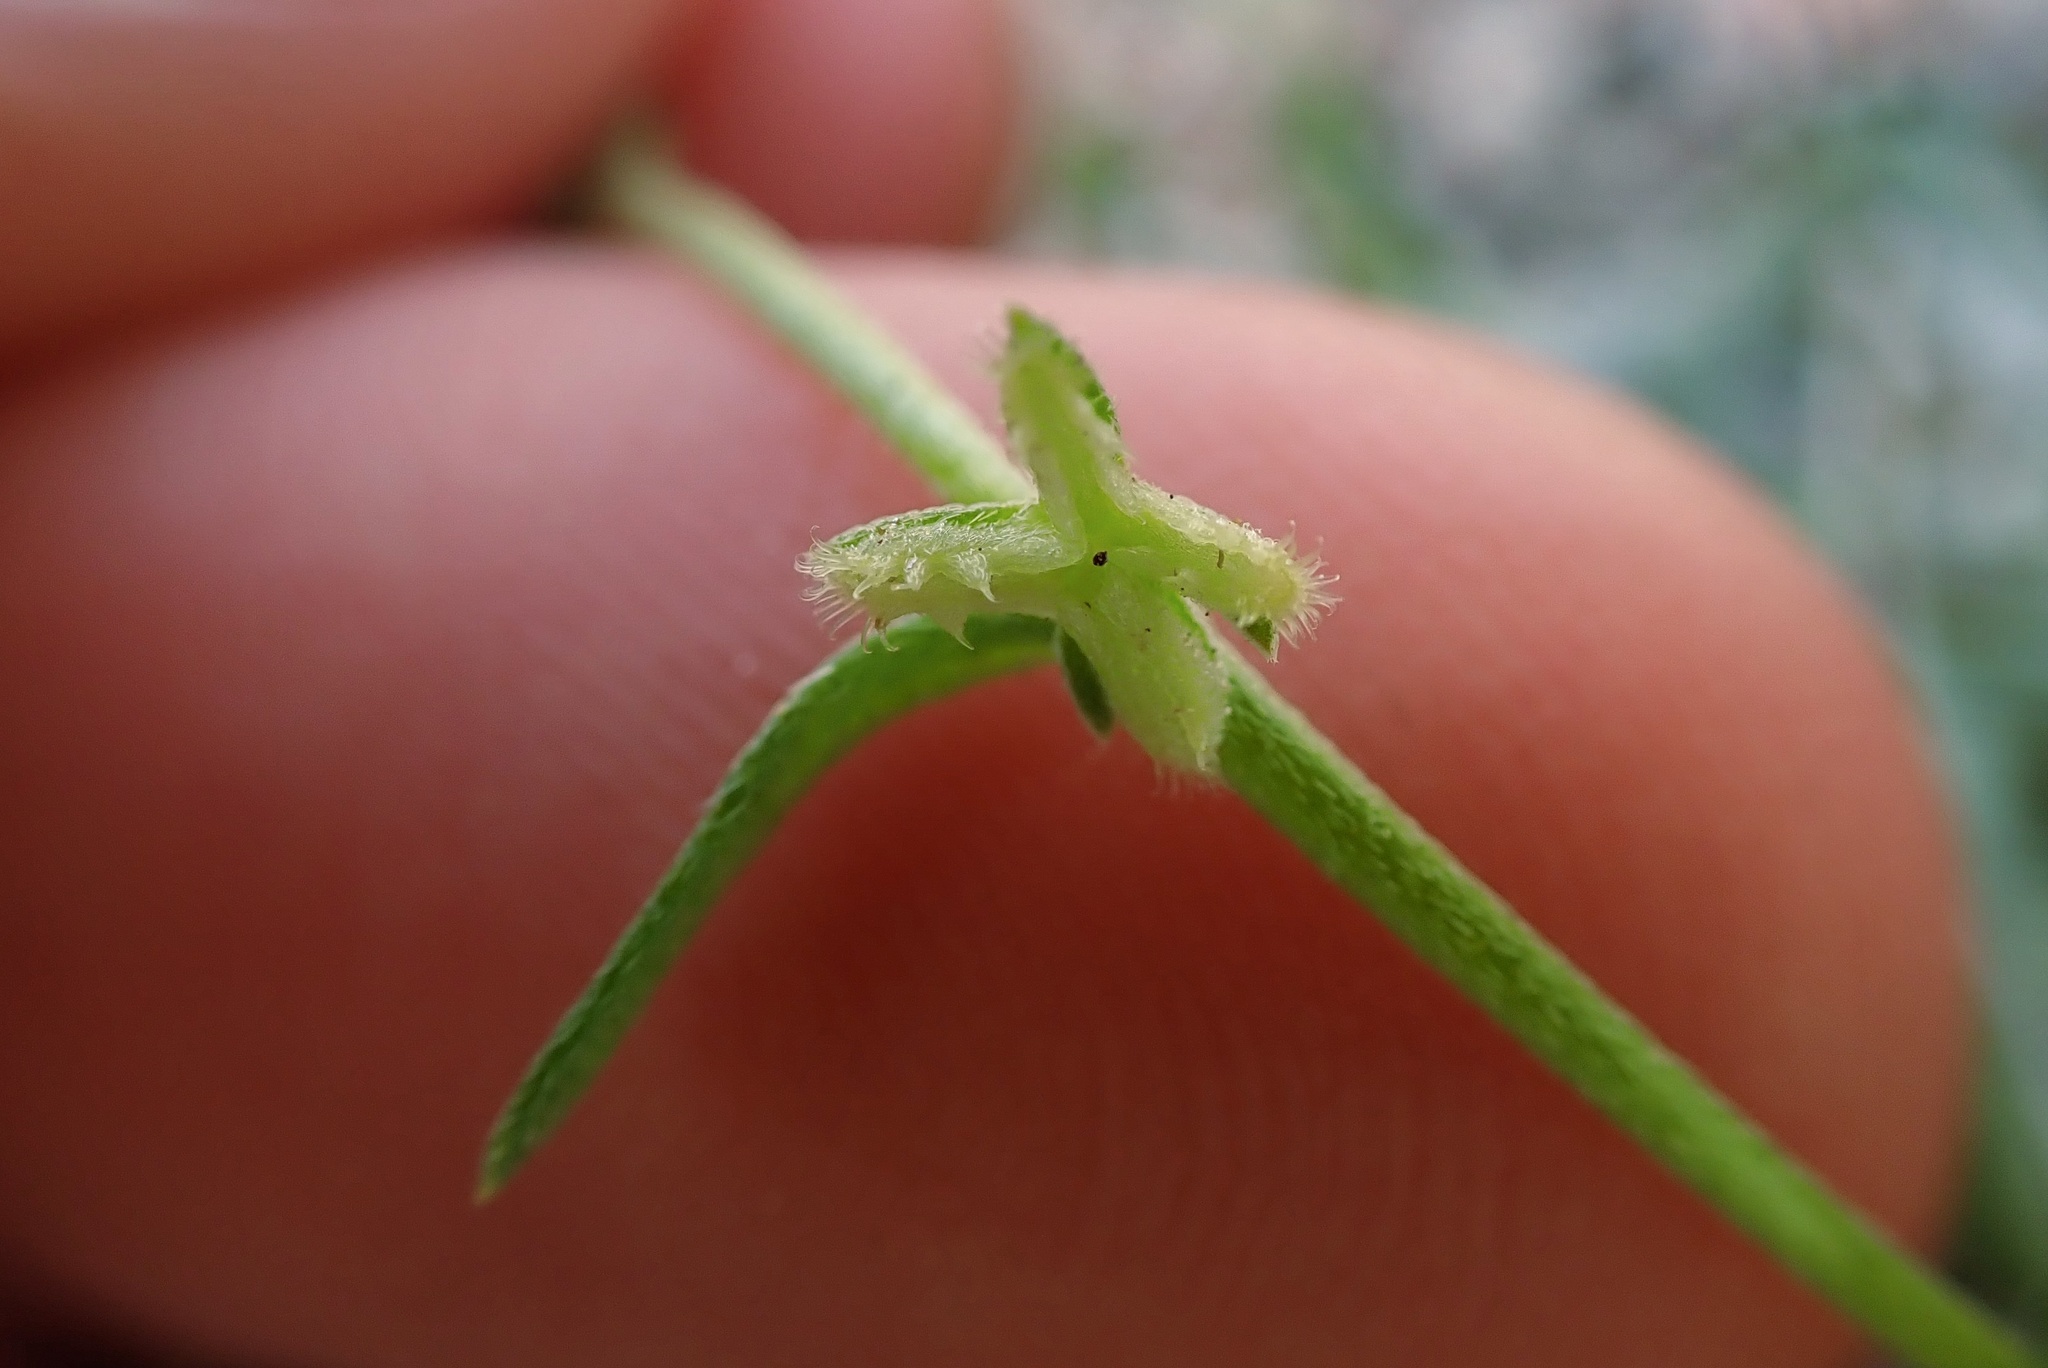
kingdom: Plantae
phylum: Tracheophyta
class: Magnoliopsida
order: Boraginales
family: Boraginaceae
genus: Pectocarya
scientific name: Pectocarya linearis
